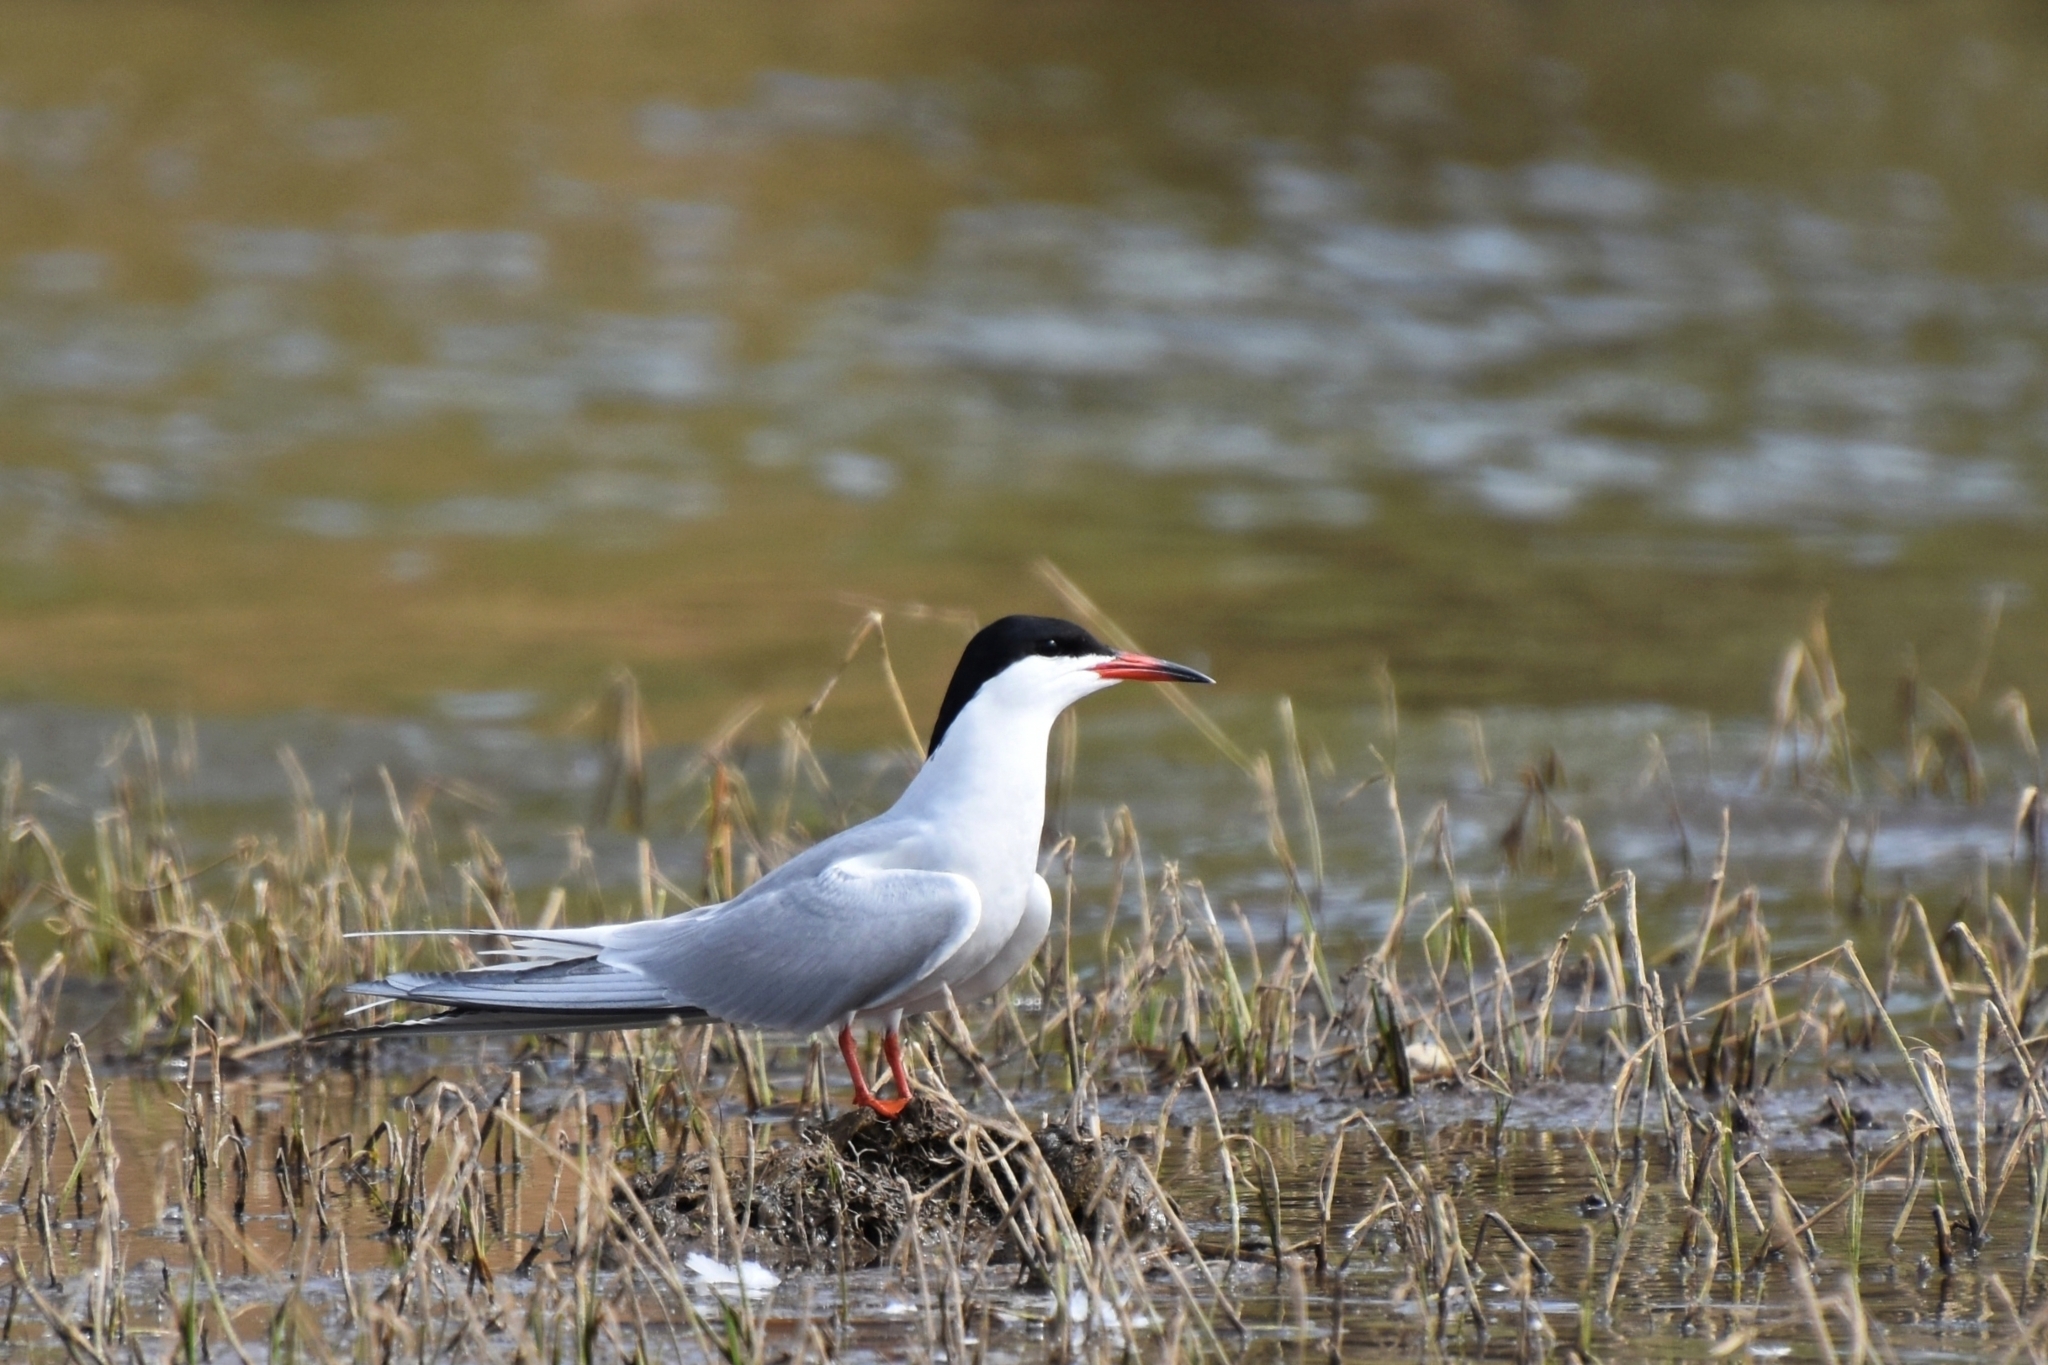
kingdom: Animalia
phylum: Chordata
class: Aves
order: Charadriiformes
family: Laridae
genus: Sterna
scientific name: Sterna hirundo
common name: Common tern
